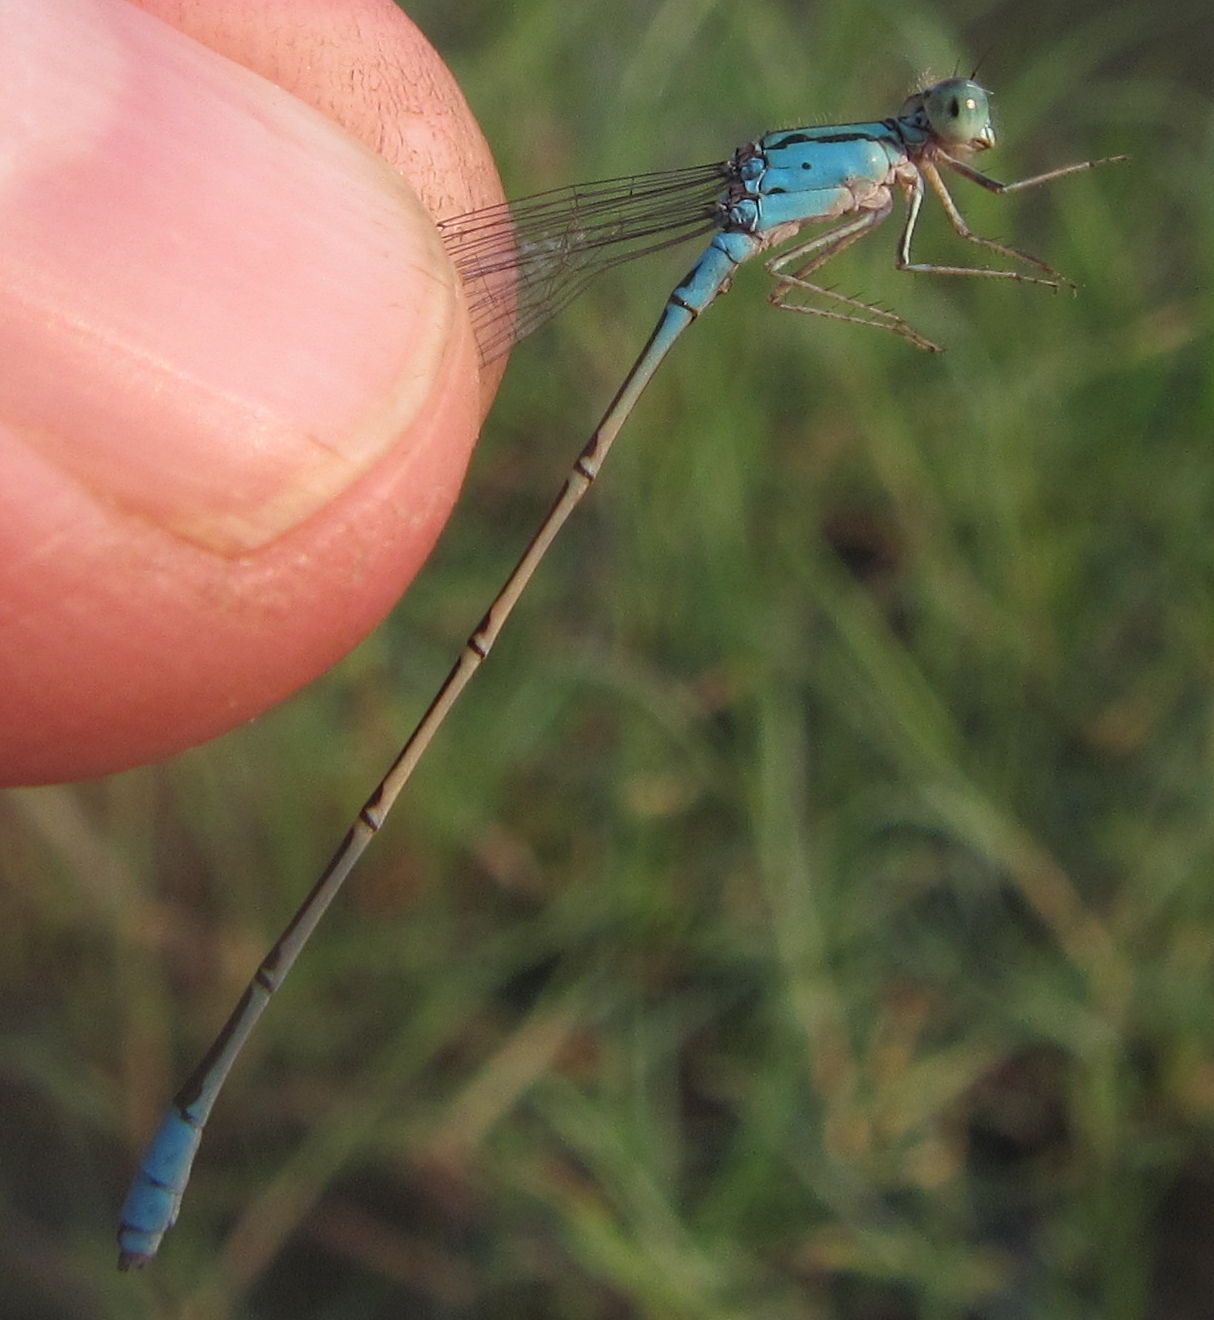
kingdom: Animalia
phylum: Arthropoda
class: Insecta
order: Odonata
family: Coenagrionidae
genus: Pseudagrion
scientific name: Pseudagrion coeleste
